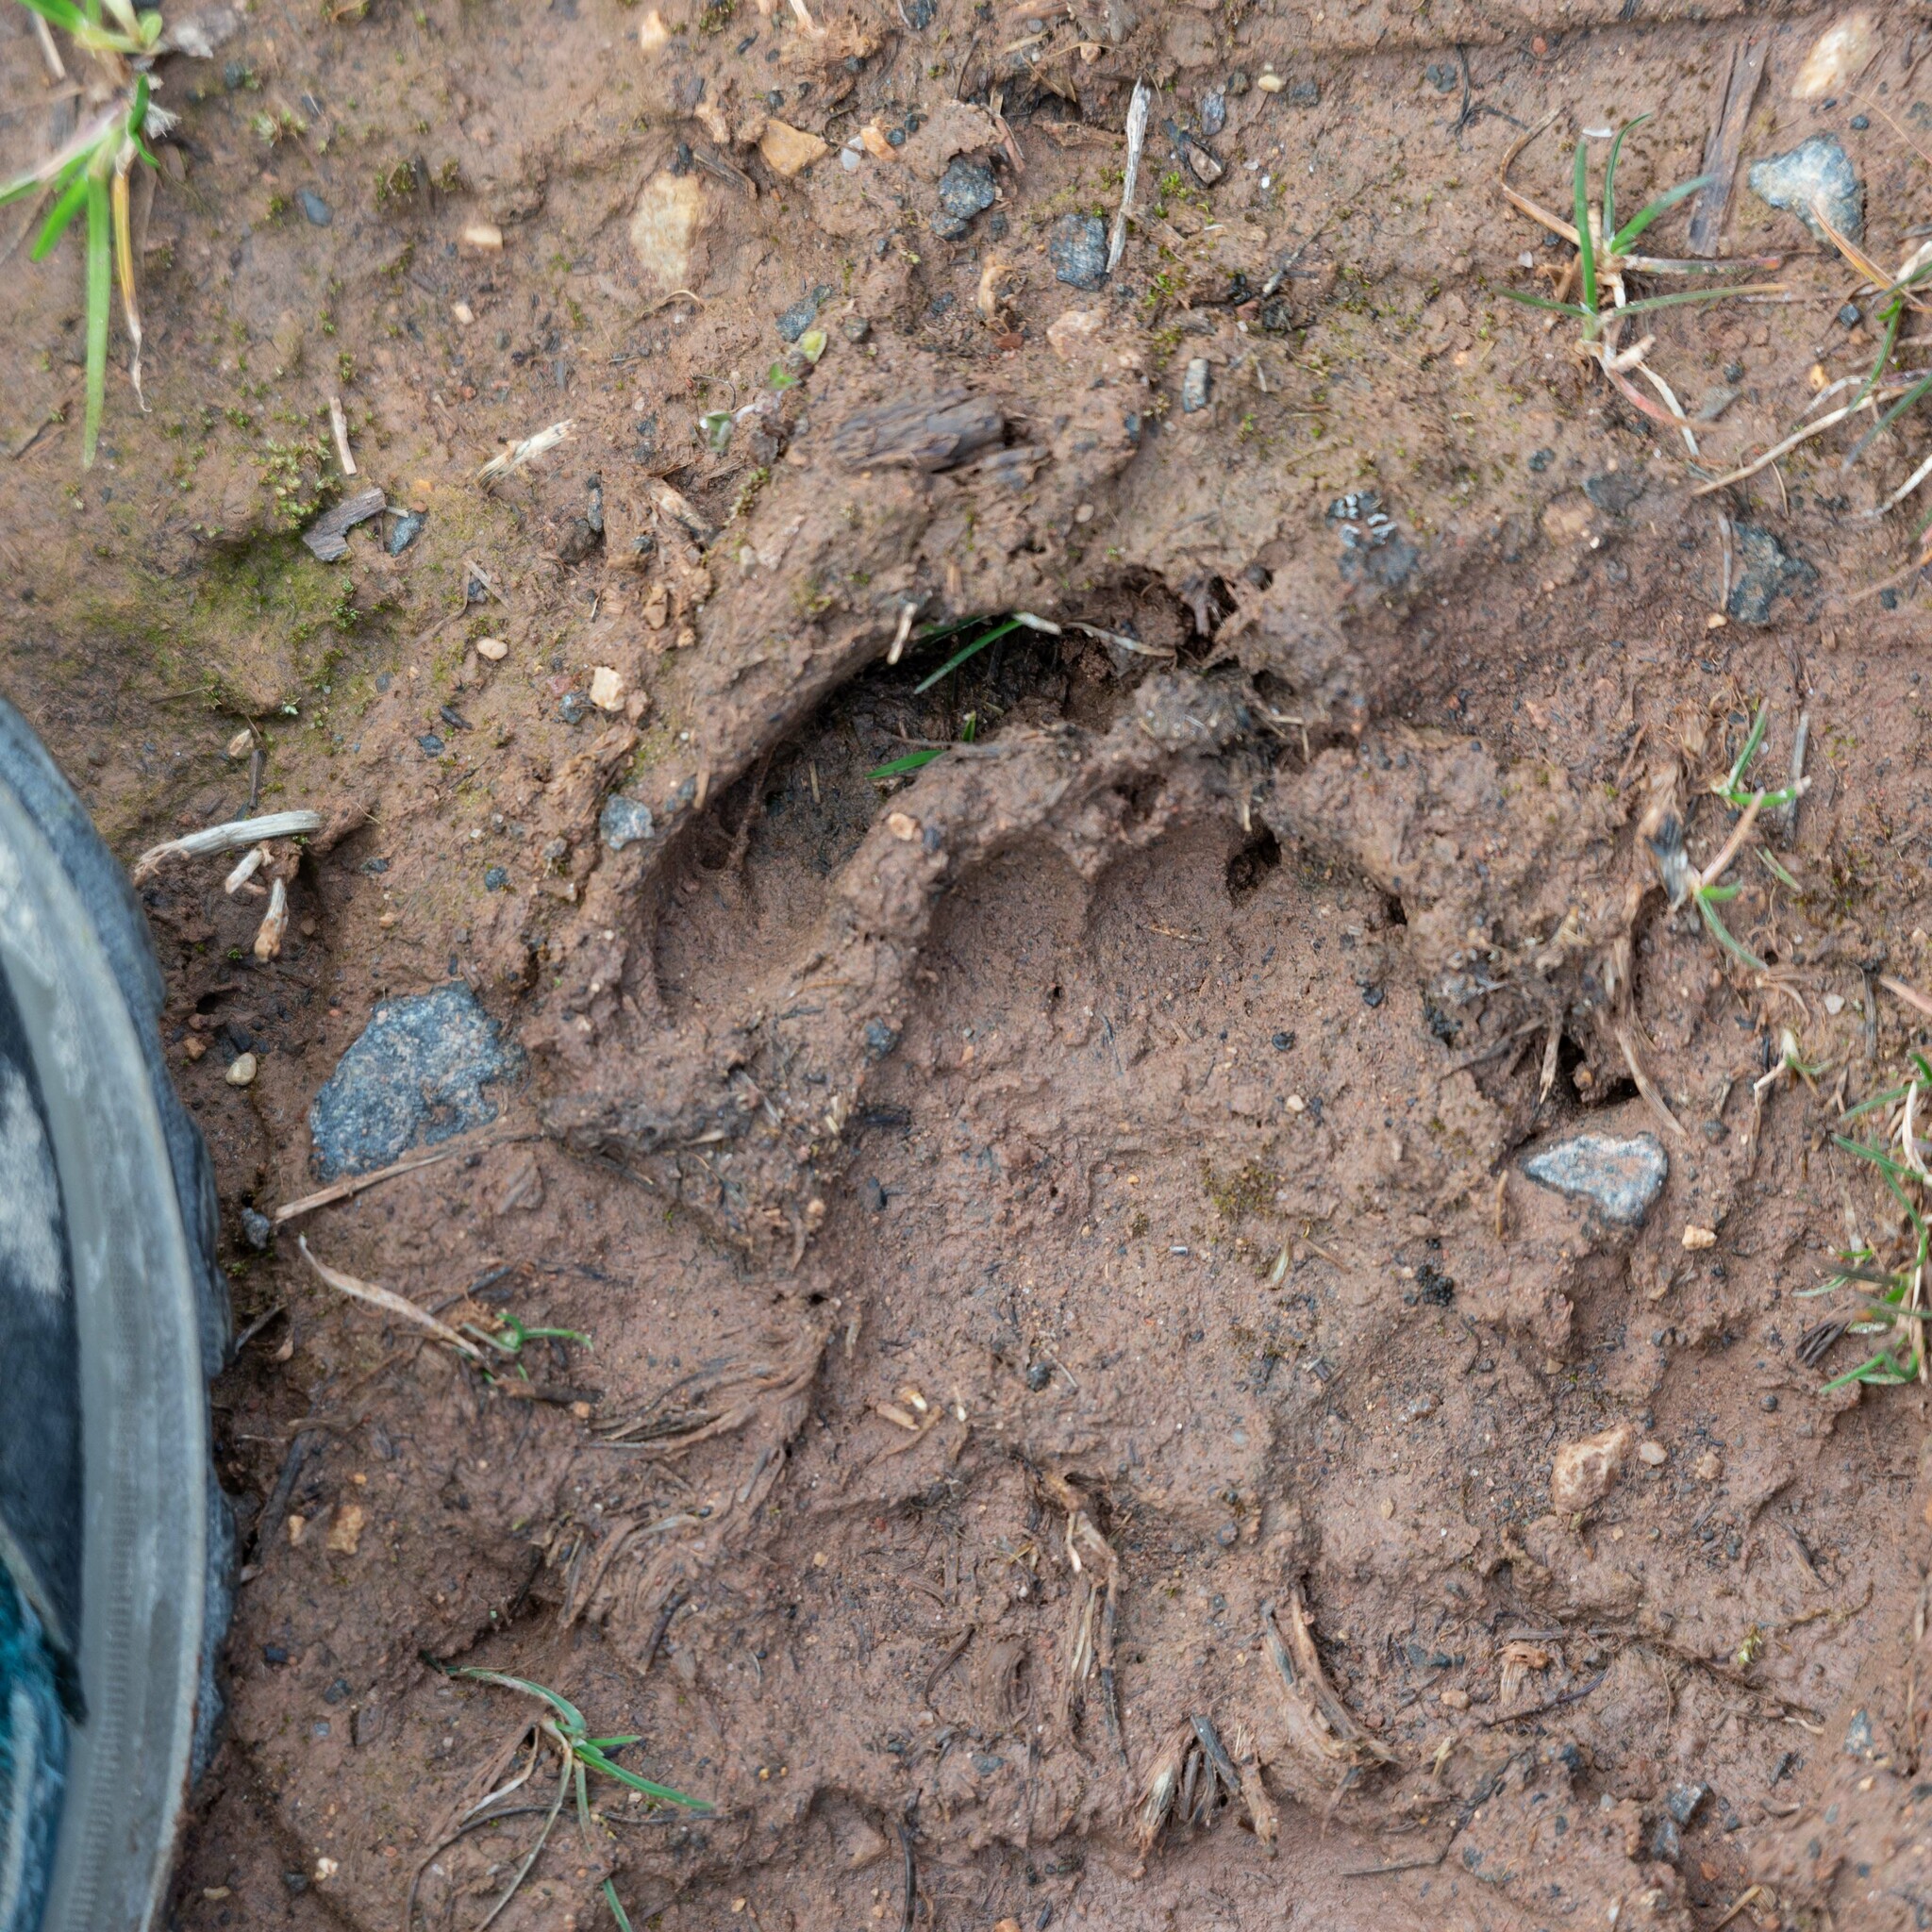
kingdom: Animalia
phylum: Chordata
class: Mammalia
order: Carnivora
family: Mustelidae
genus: Meles
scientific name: Meles meles
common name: Eurasian badger
